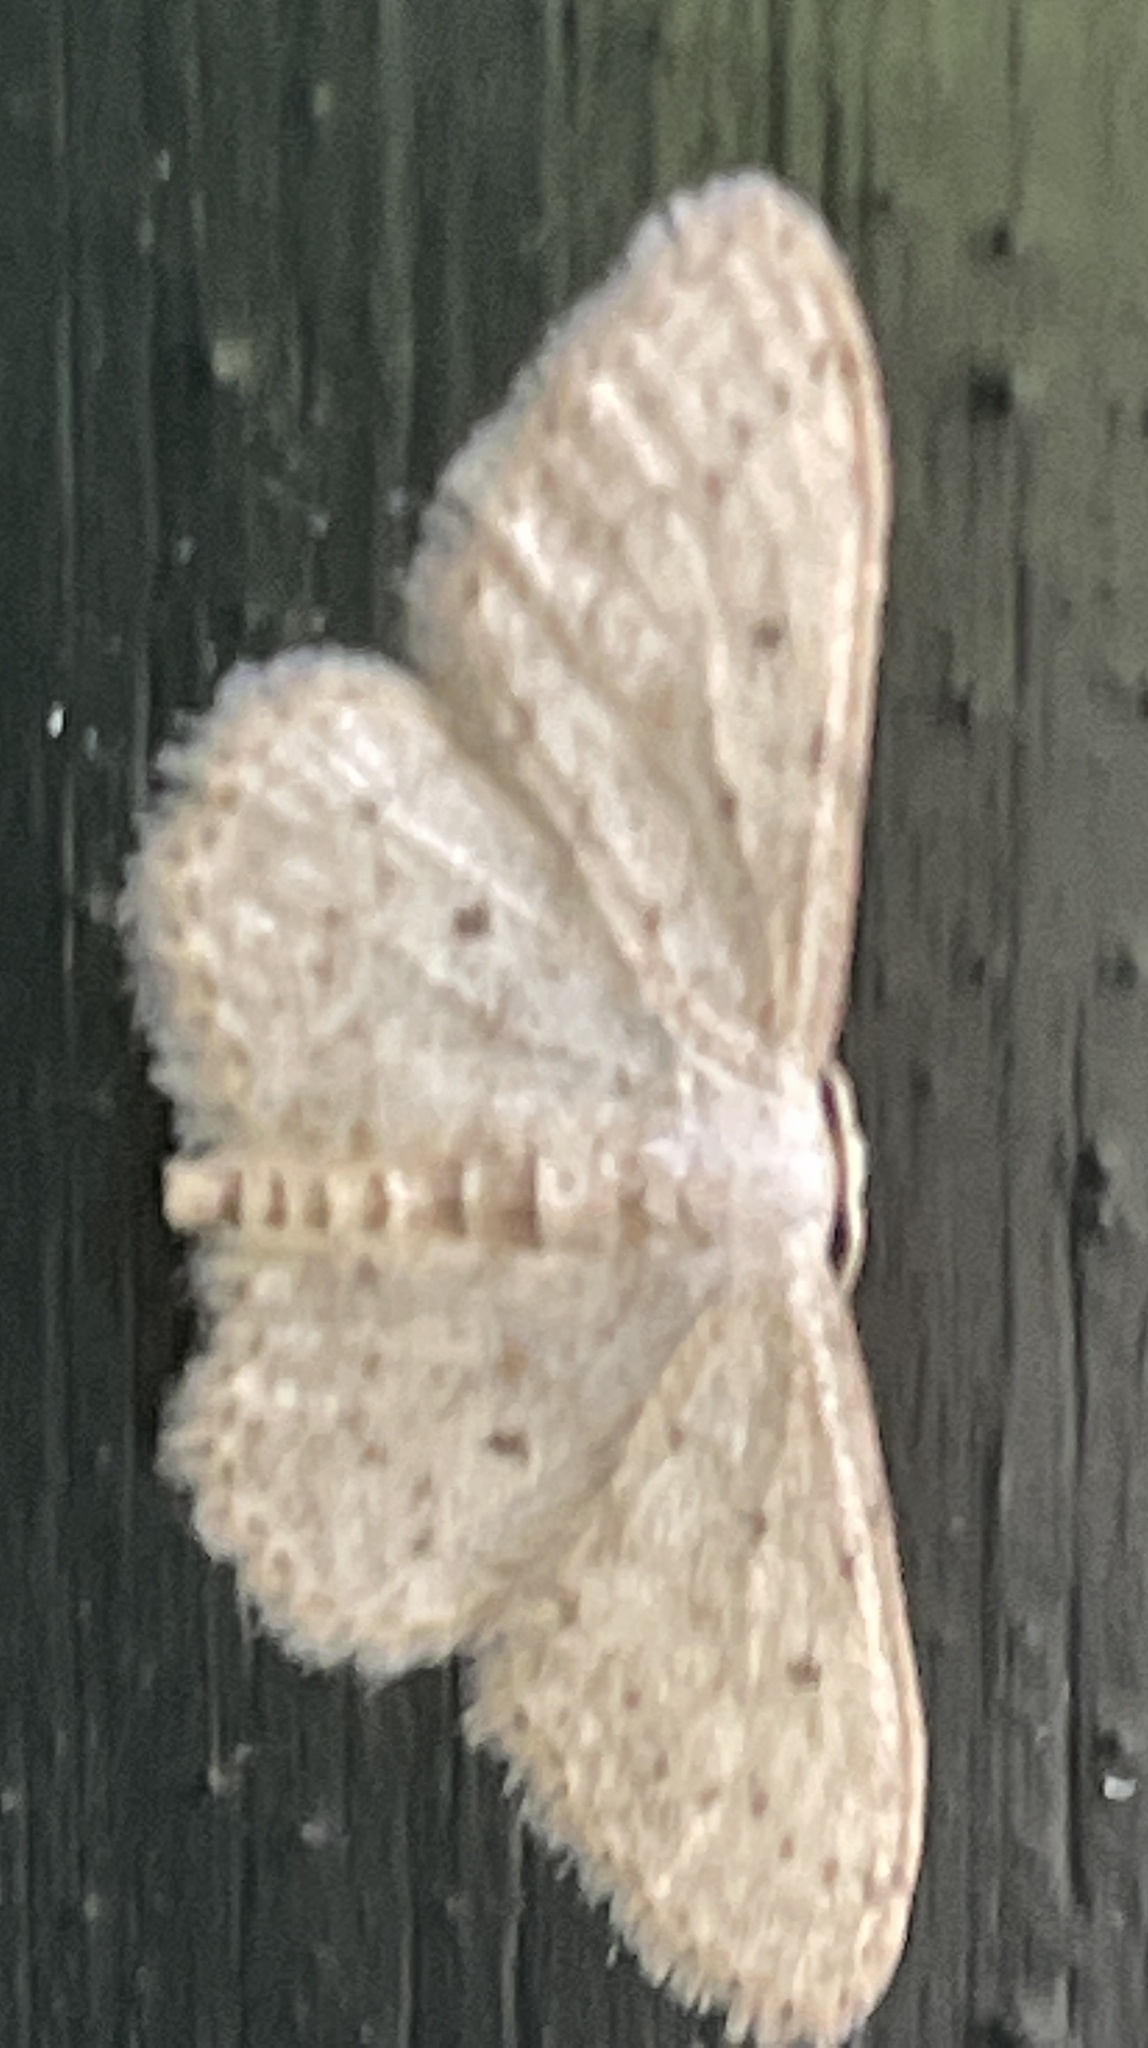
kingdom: Animalia
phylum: Arthropoda
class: Insecta
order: Lepidoptera
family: Geometridae
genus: Idaea
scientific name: Idaea seriata
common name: Small dusty wave
